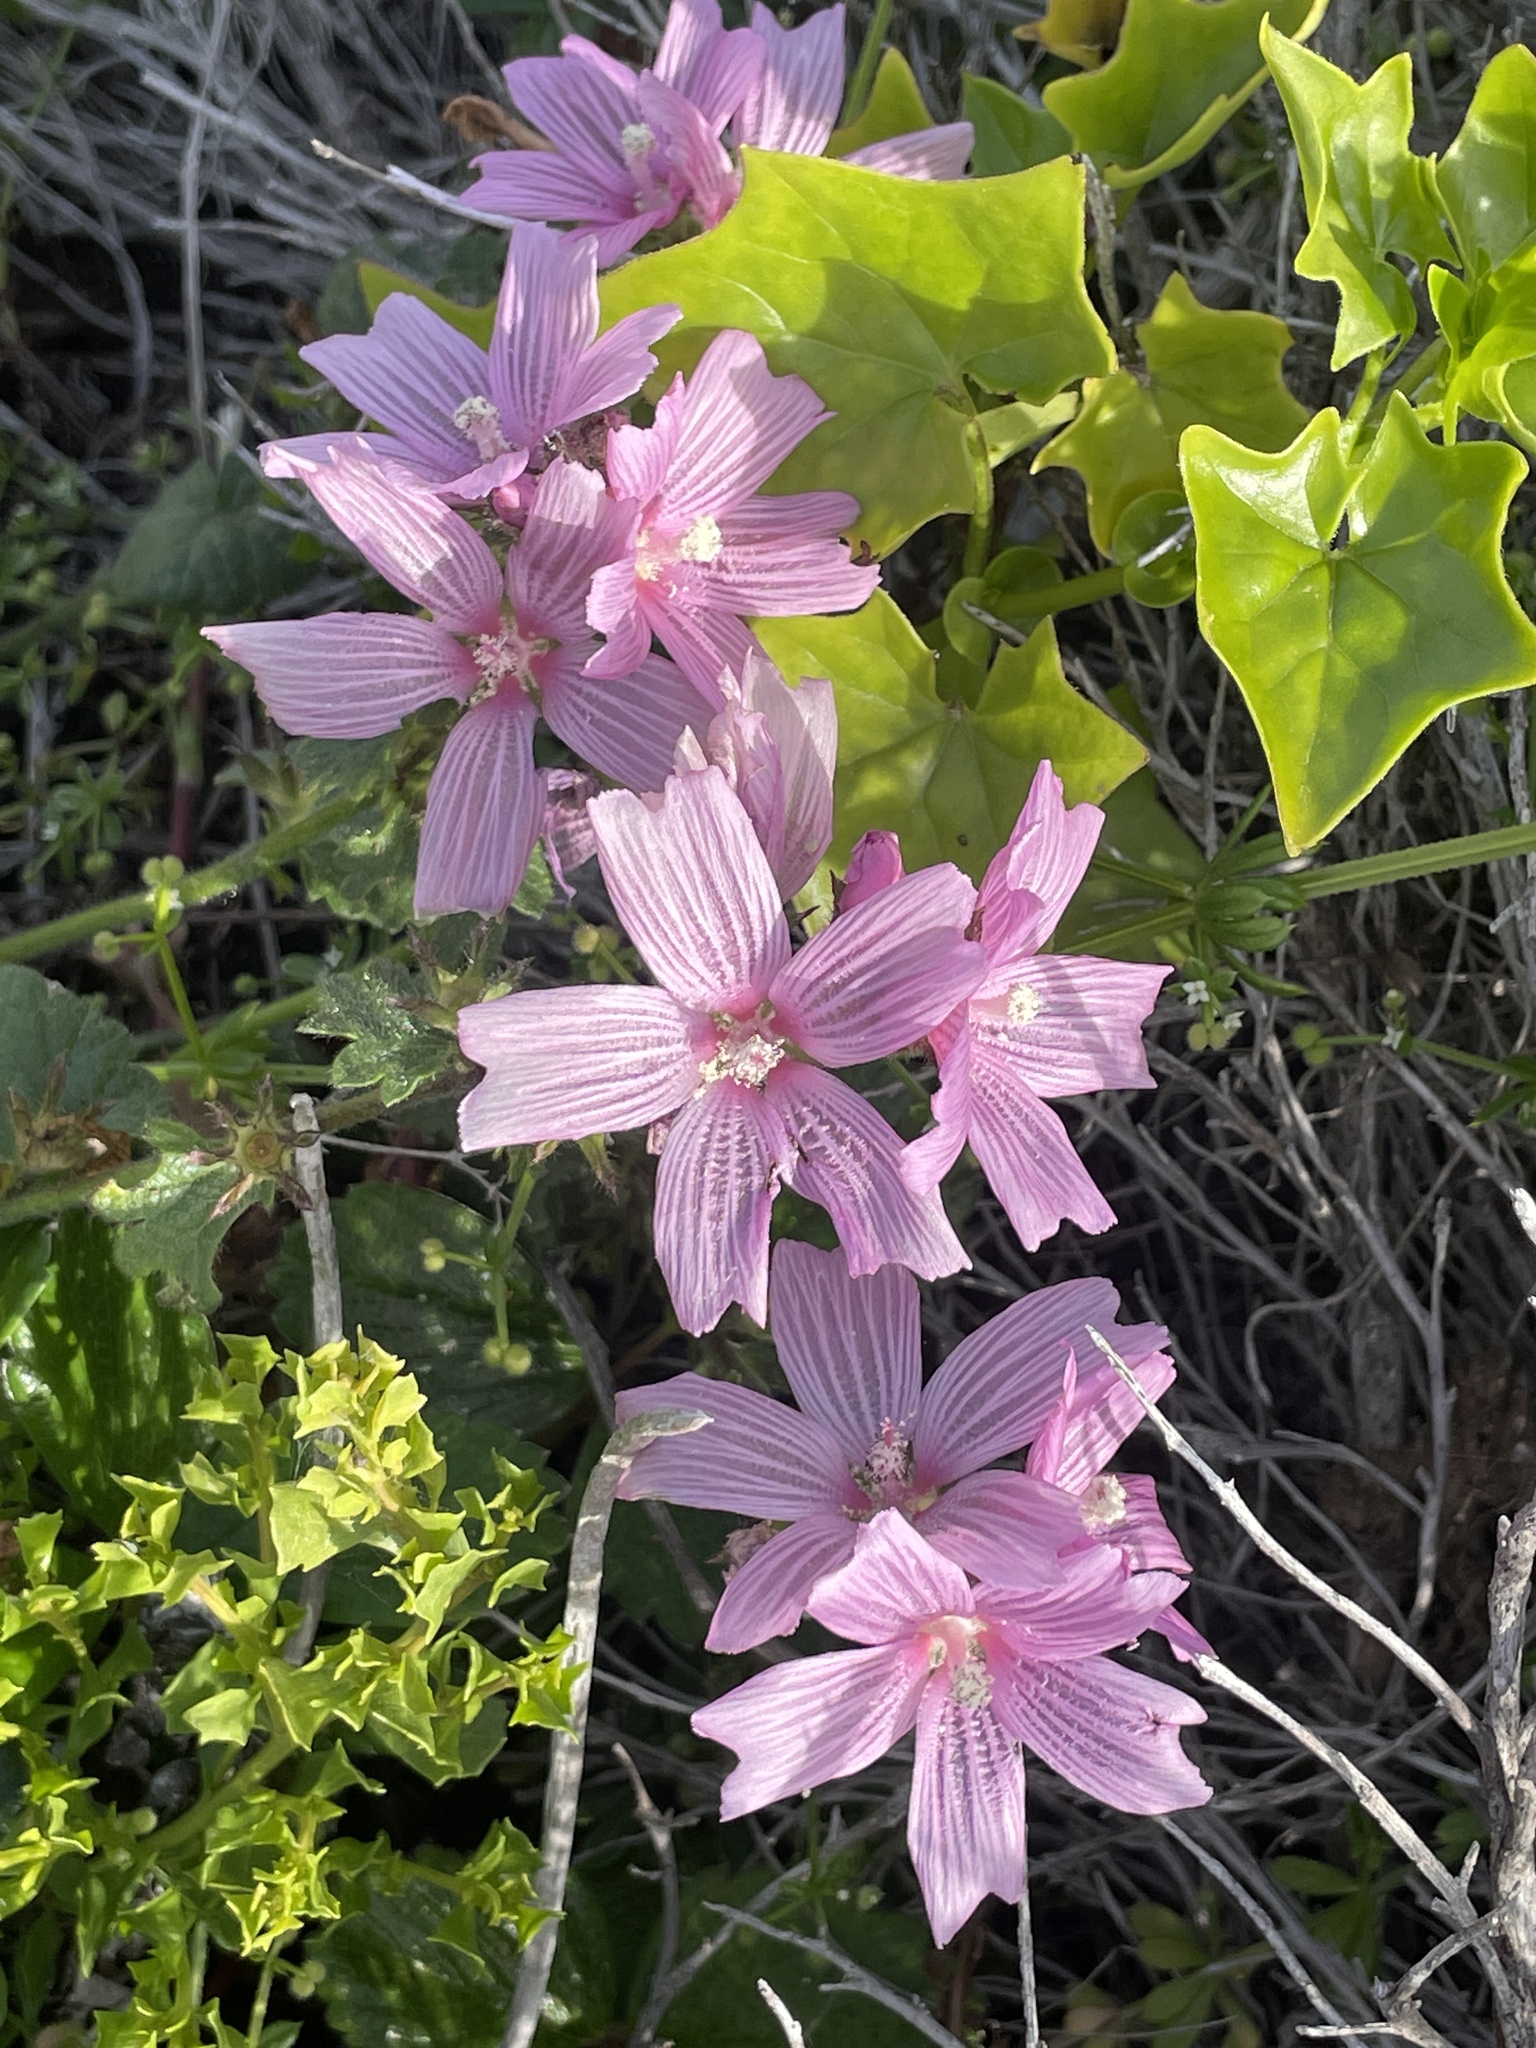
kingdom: Plantae
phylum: Tracheophyta
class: Magnoliopsida
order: Malvales
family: Malvaceae
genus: Sidalcea
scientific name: Sidalcea malviflora
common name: Greek mallow
